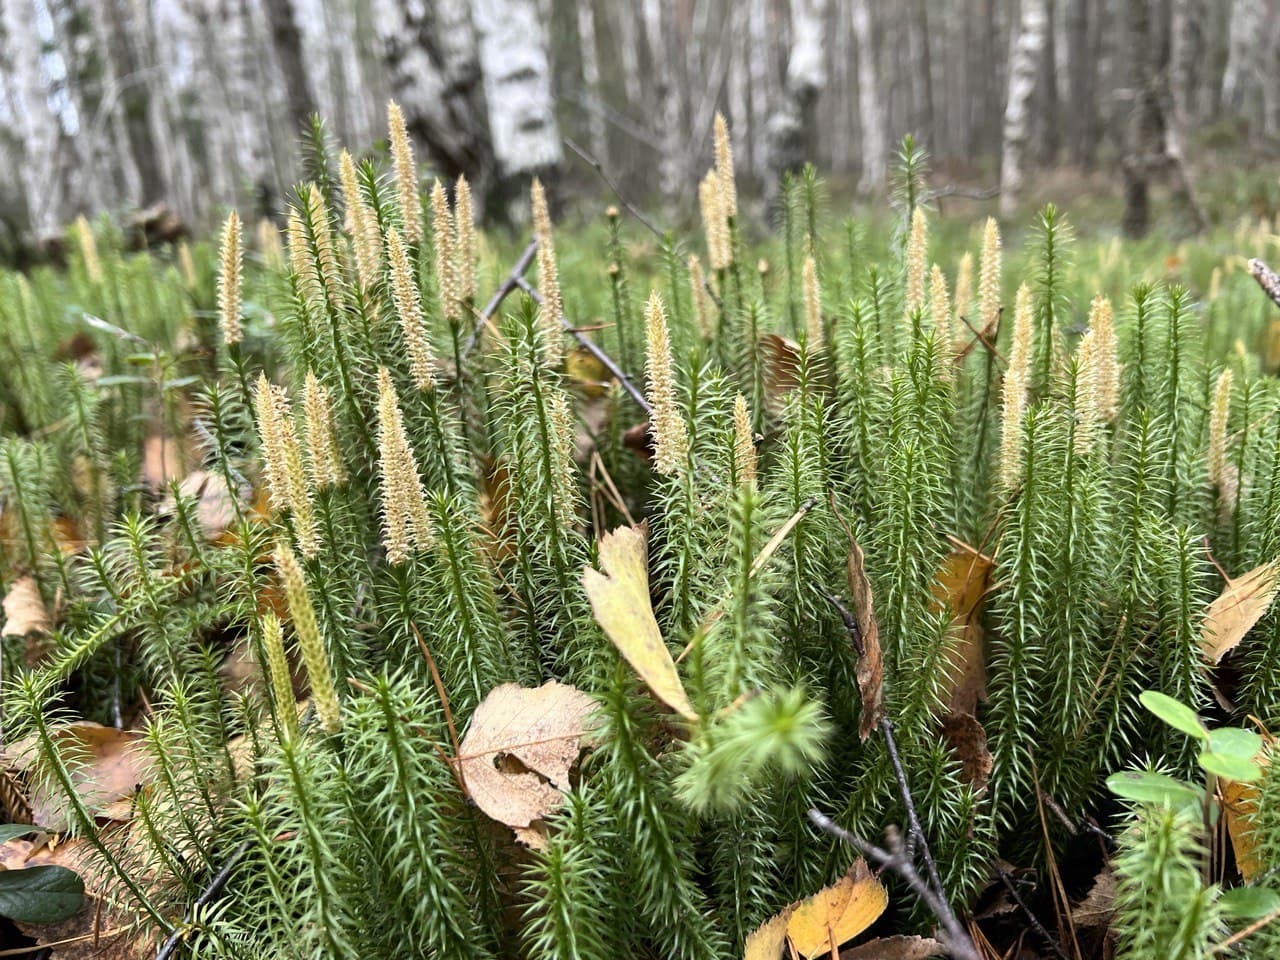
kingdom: Plantae
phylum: Tracheophyta
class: Lycopodiopsida
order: Lycopodiales
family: Lycopodiaceae
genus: Spinulum
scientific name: Spinulum annotinum
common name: Interrupted club-moss
